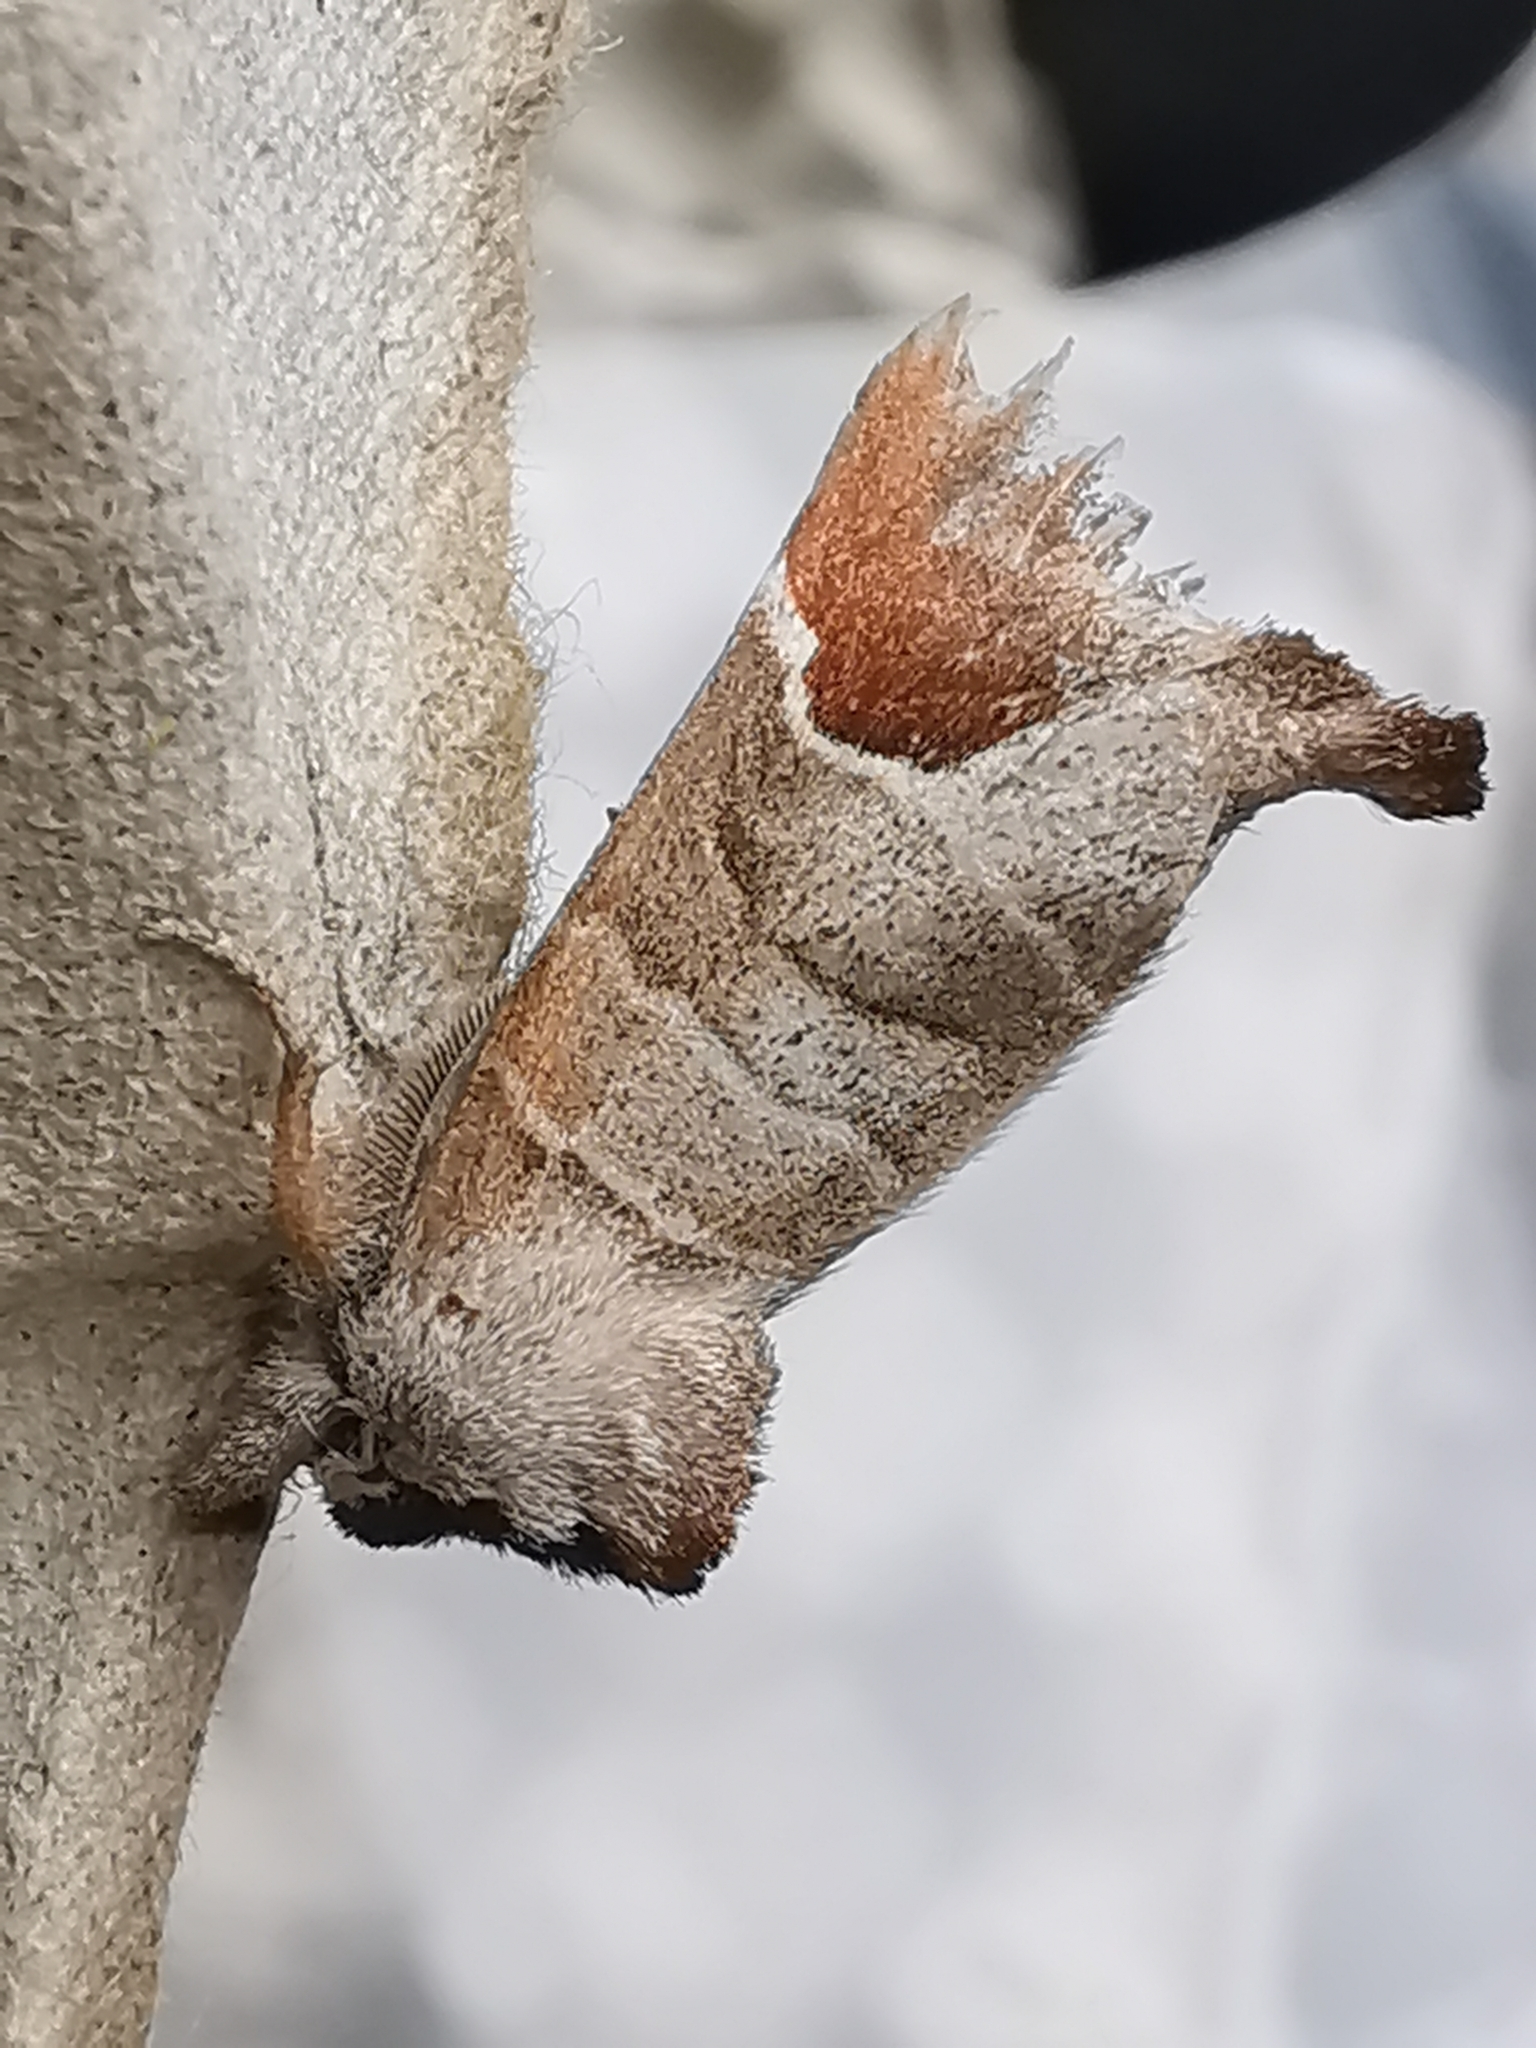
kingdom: Animalia
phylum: Arthropoda
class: Insecta
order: Lepidoptera
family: Notodontidae
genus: Clostera
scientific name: Clostera curtula
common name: Chocolate-tip
